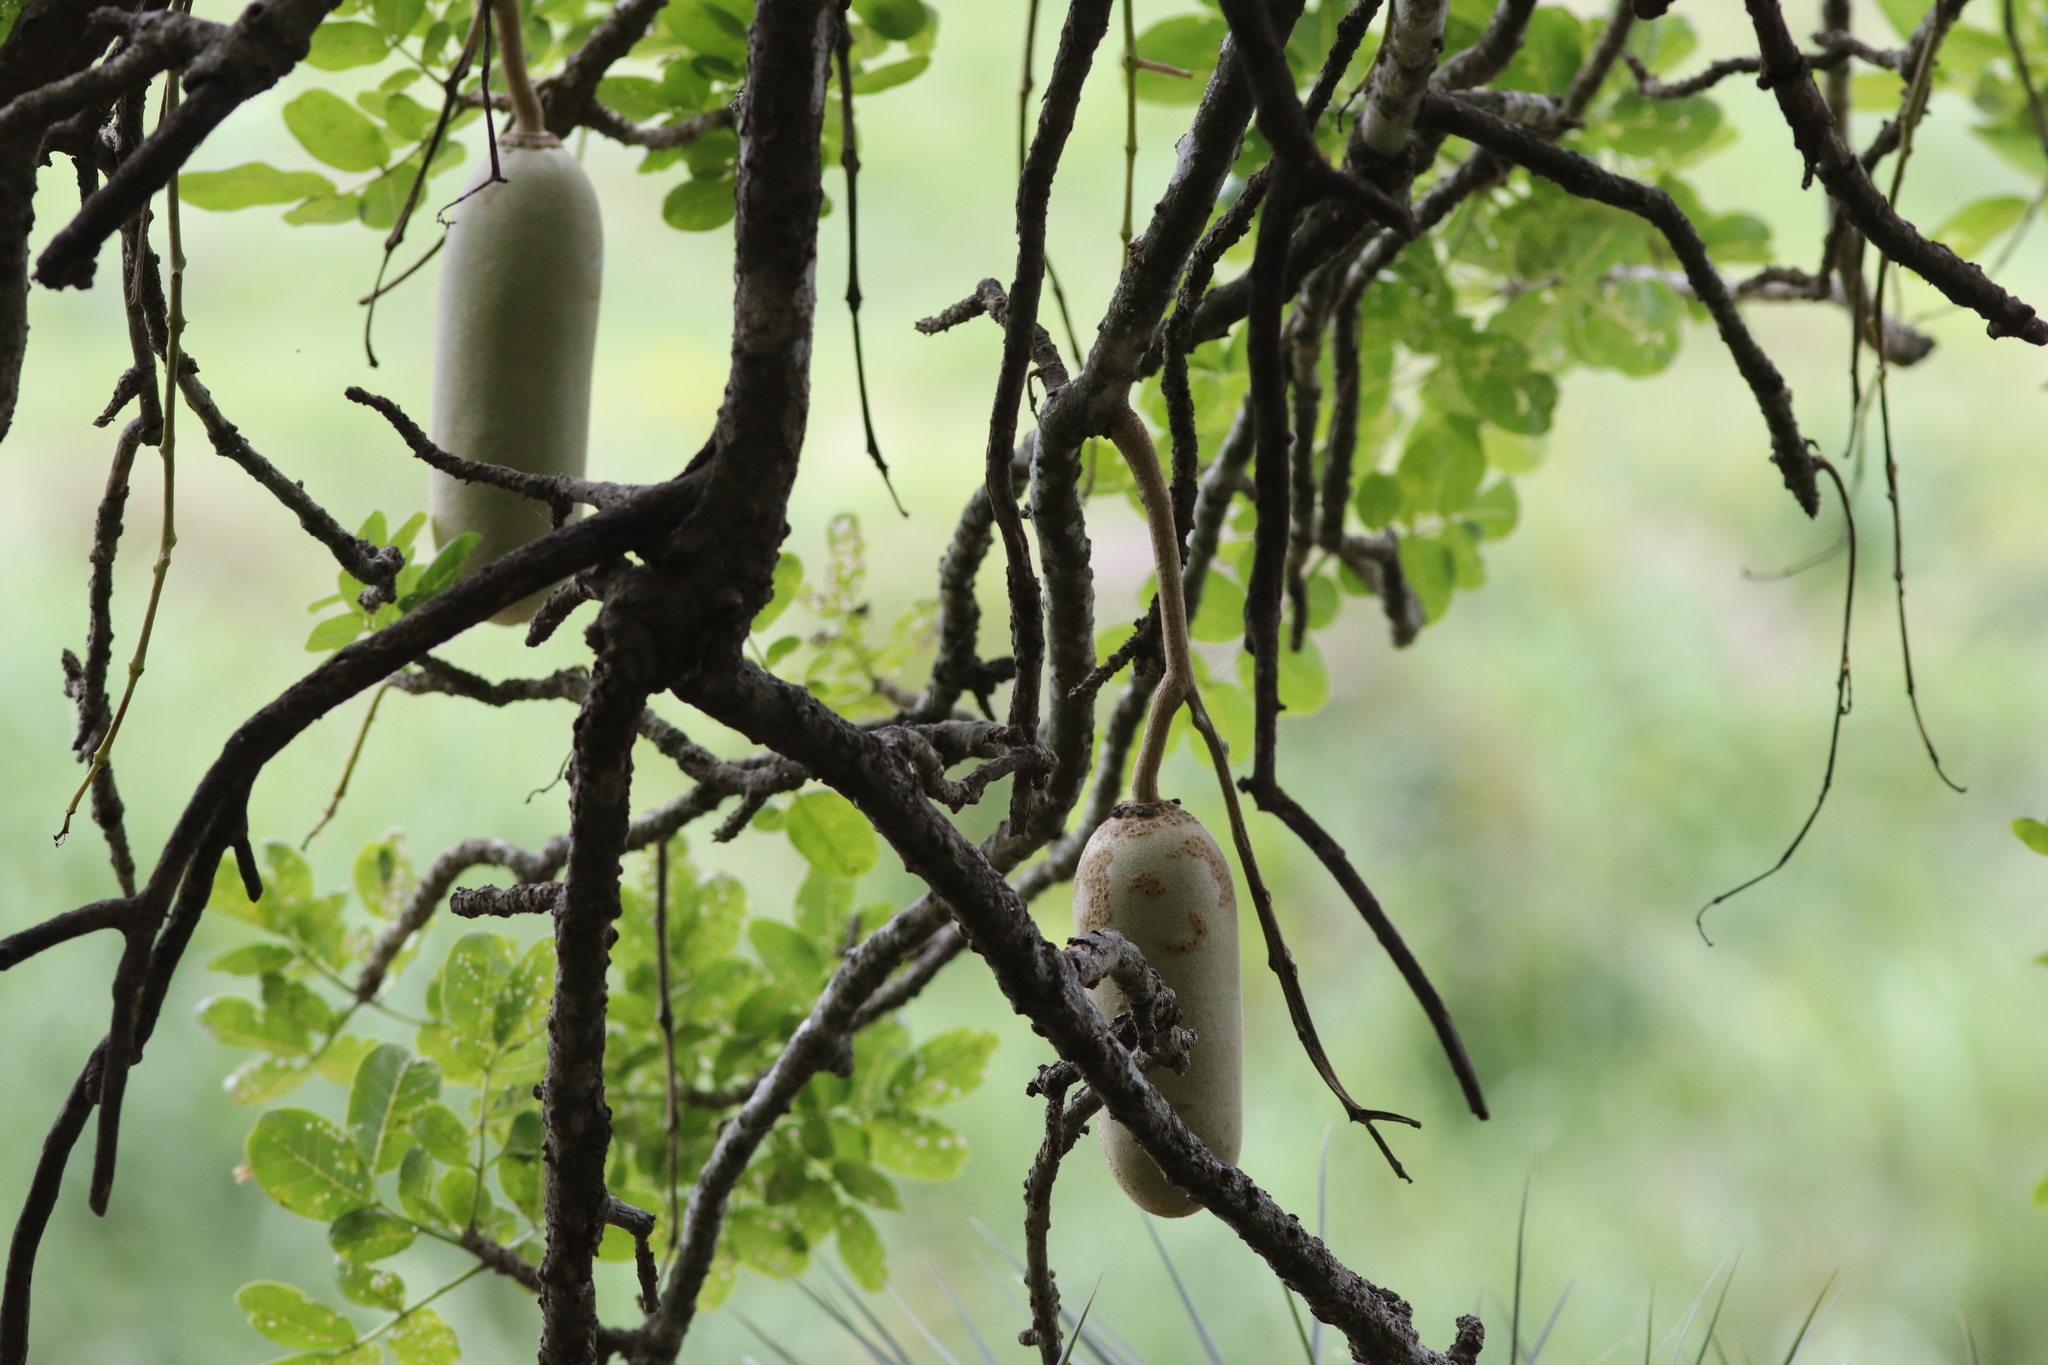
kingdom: Plantae
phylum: Tracheophyta
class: Magnoliopsida
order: Lamiales
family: Bignoniaceae
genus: Kigelia
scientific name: Kigelia africana
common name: Sausage tree
